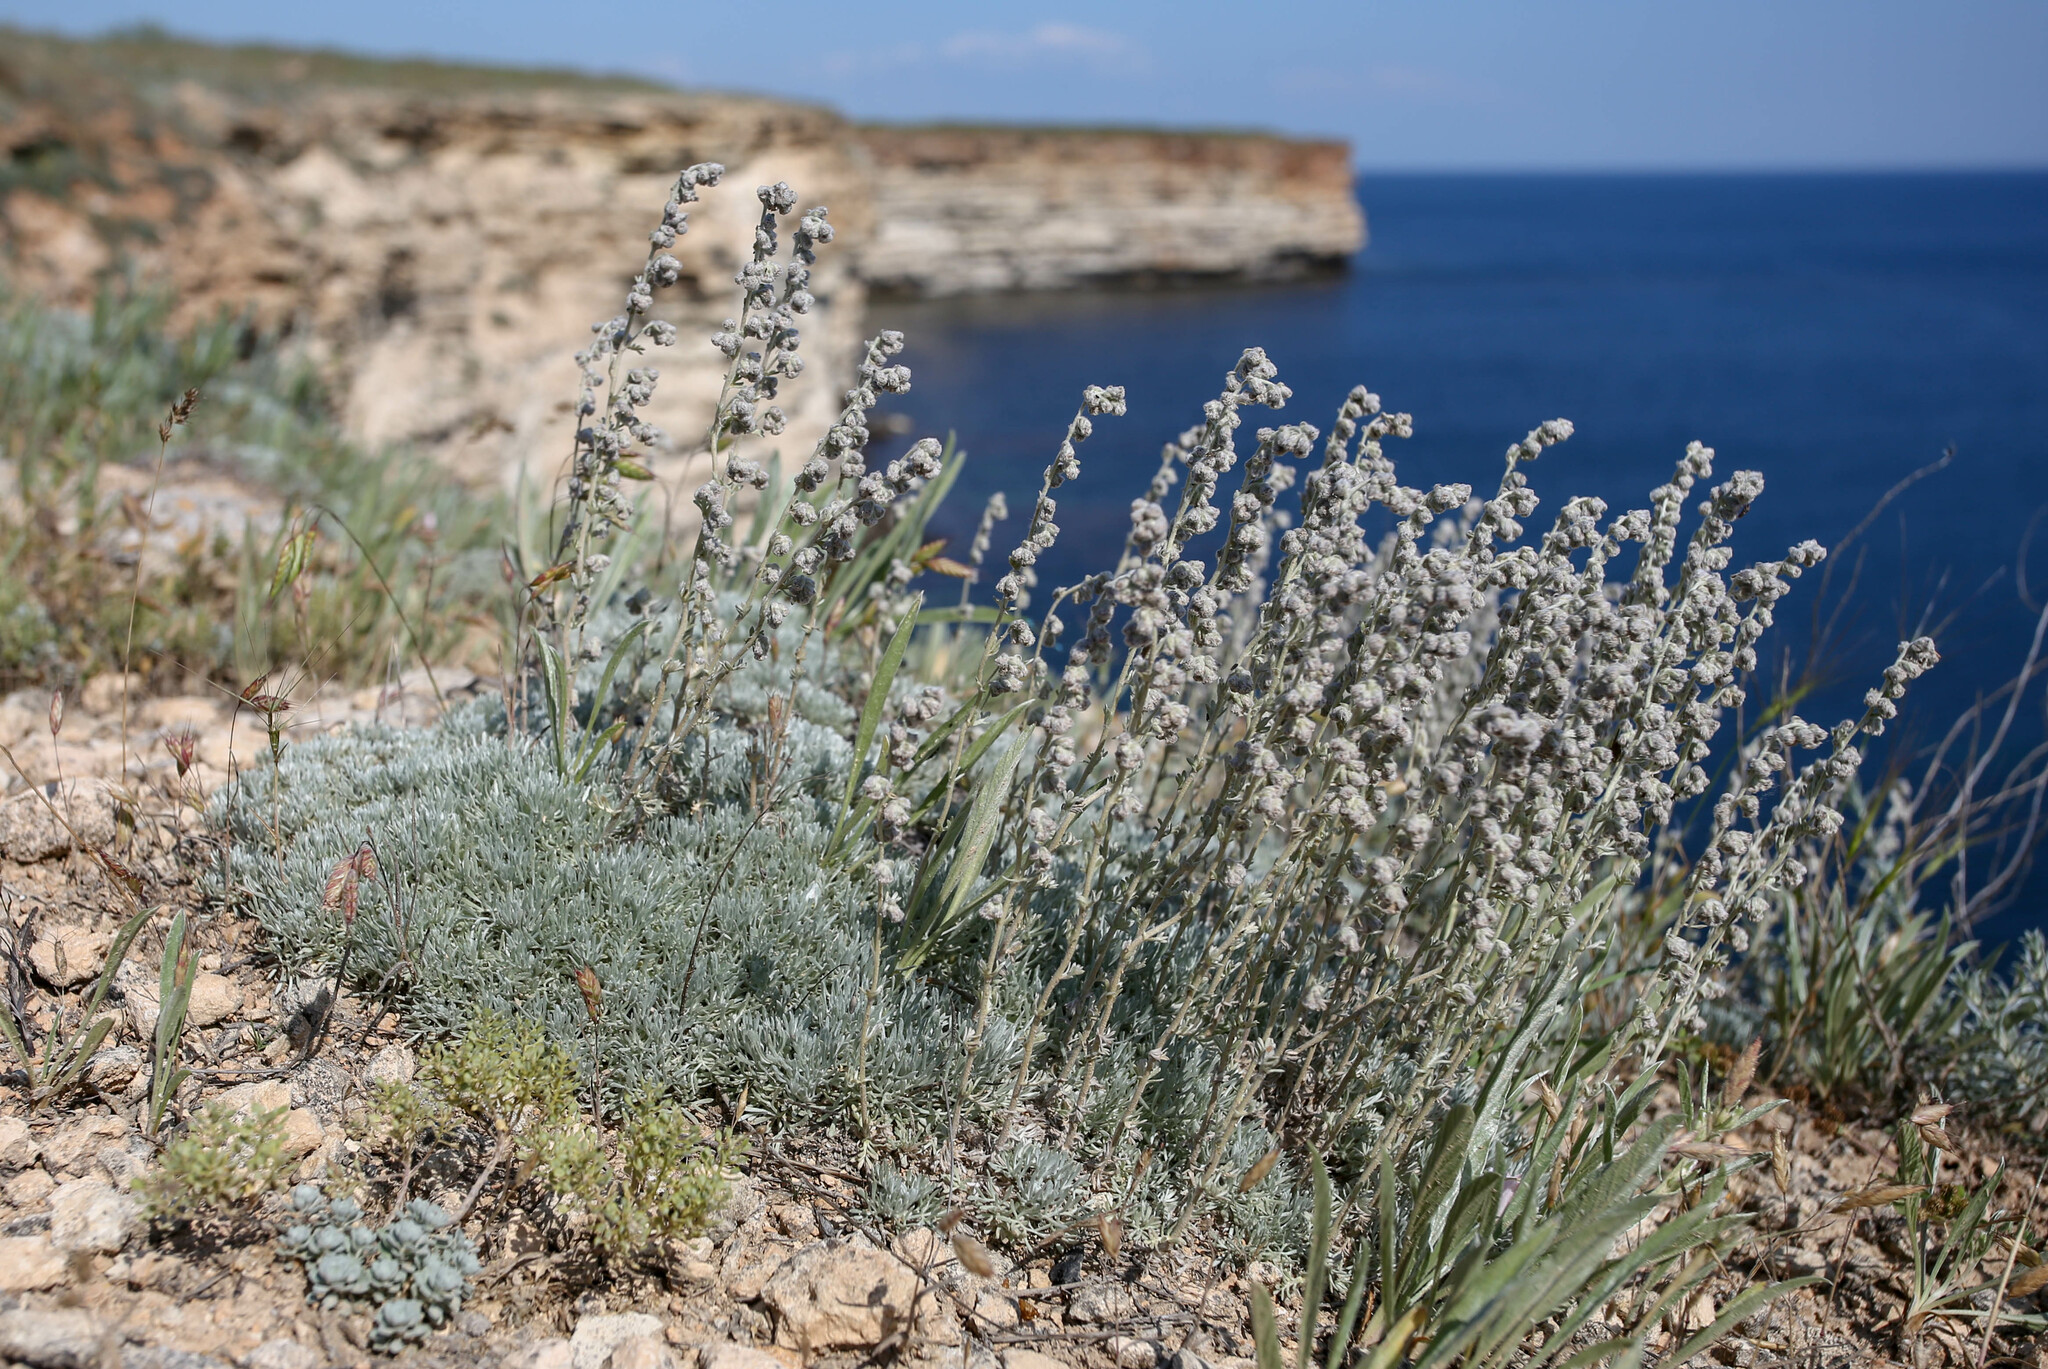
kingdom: Plantae
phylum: Tracheophyta
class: Magnoliopsida
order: Asterales
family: Asteraceae
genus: Artemisia
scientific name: Artemisia alpina
